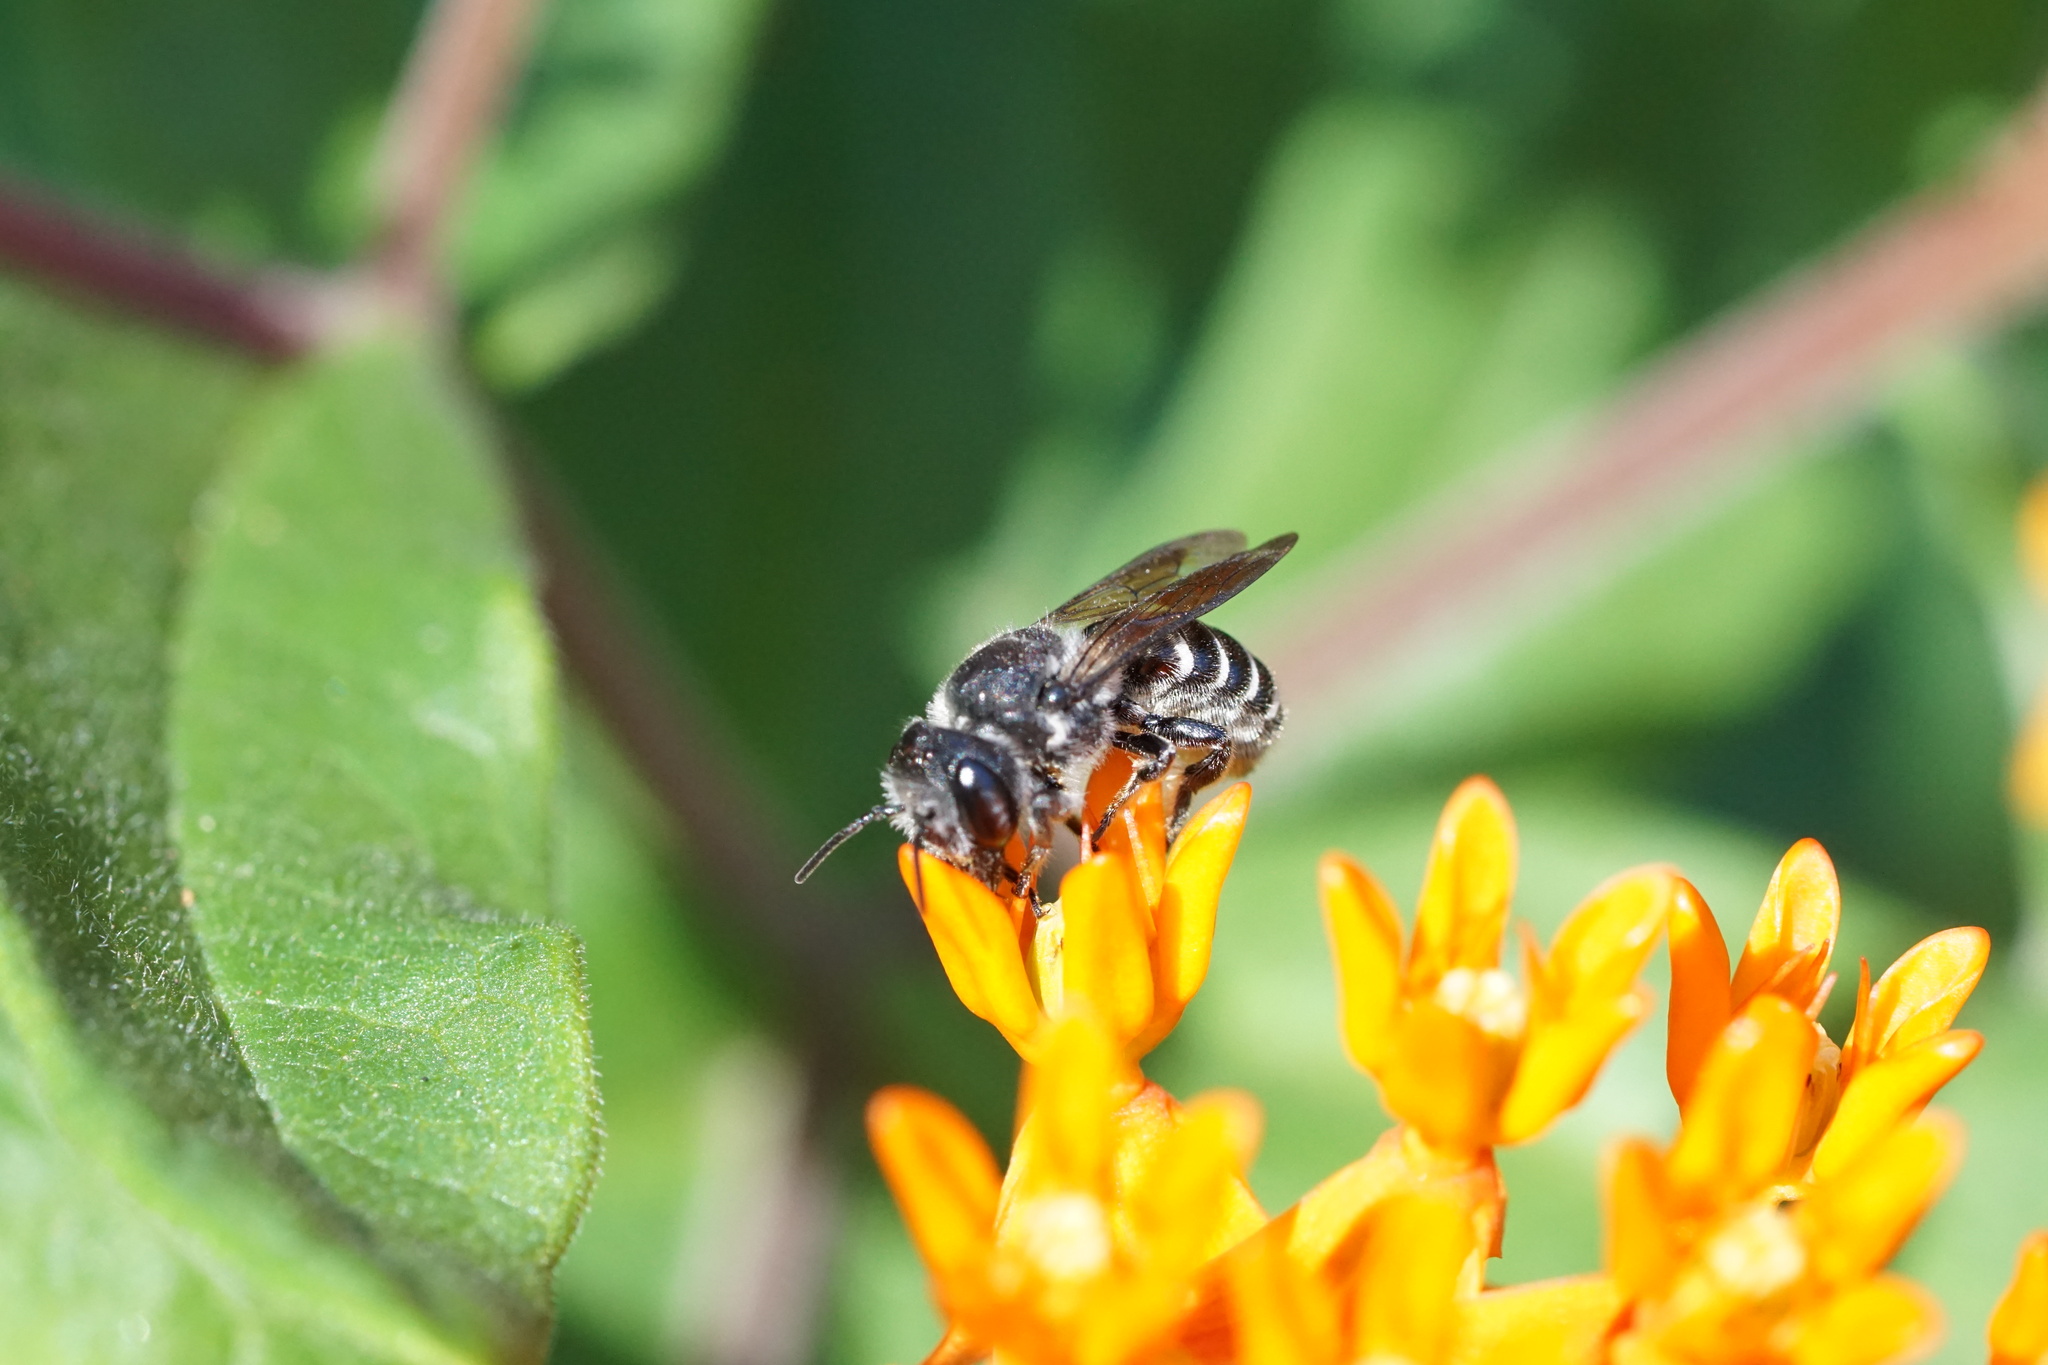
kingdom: Animalia
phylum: Arthropoda
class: Insecta
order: Hymenoptera
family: Megachilidae
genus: Megachile
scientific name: Megachile campanulae
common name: Bellflower resin bee
